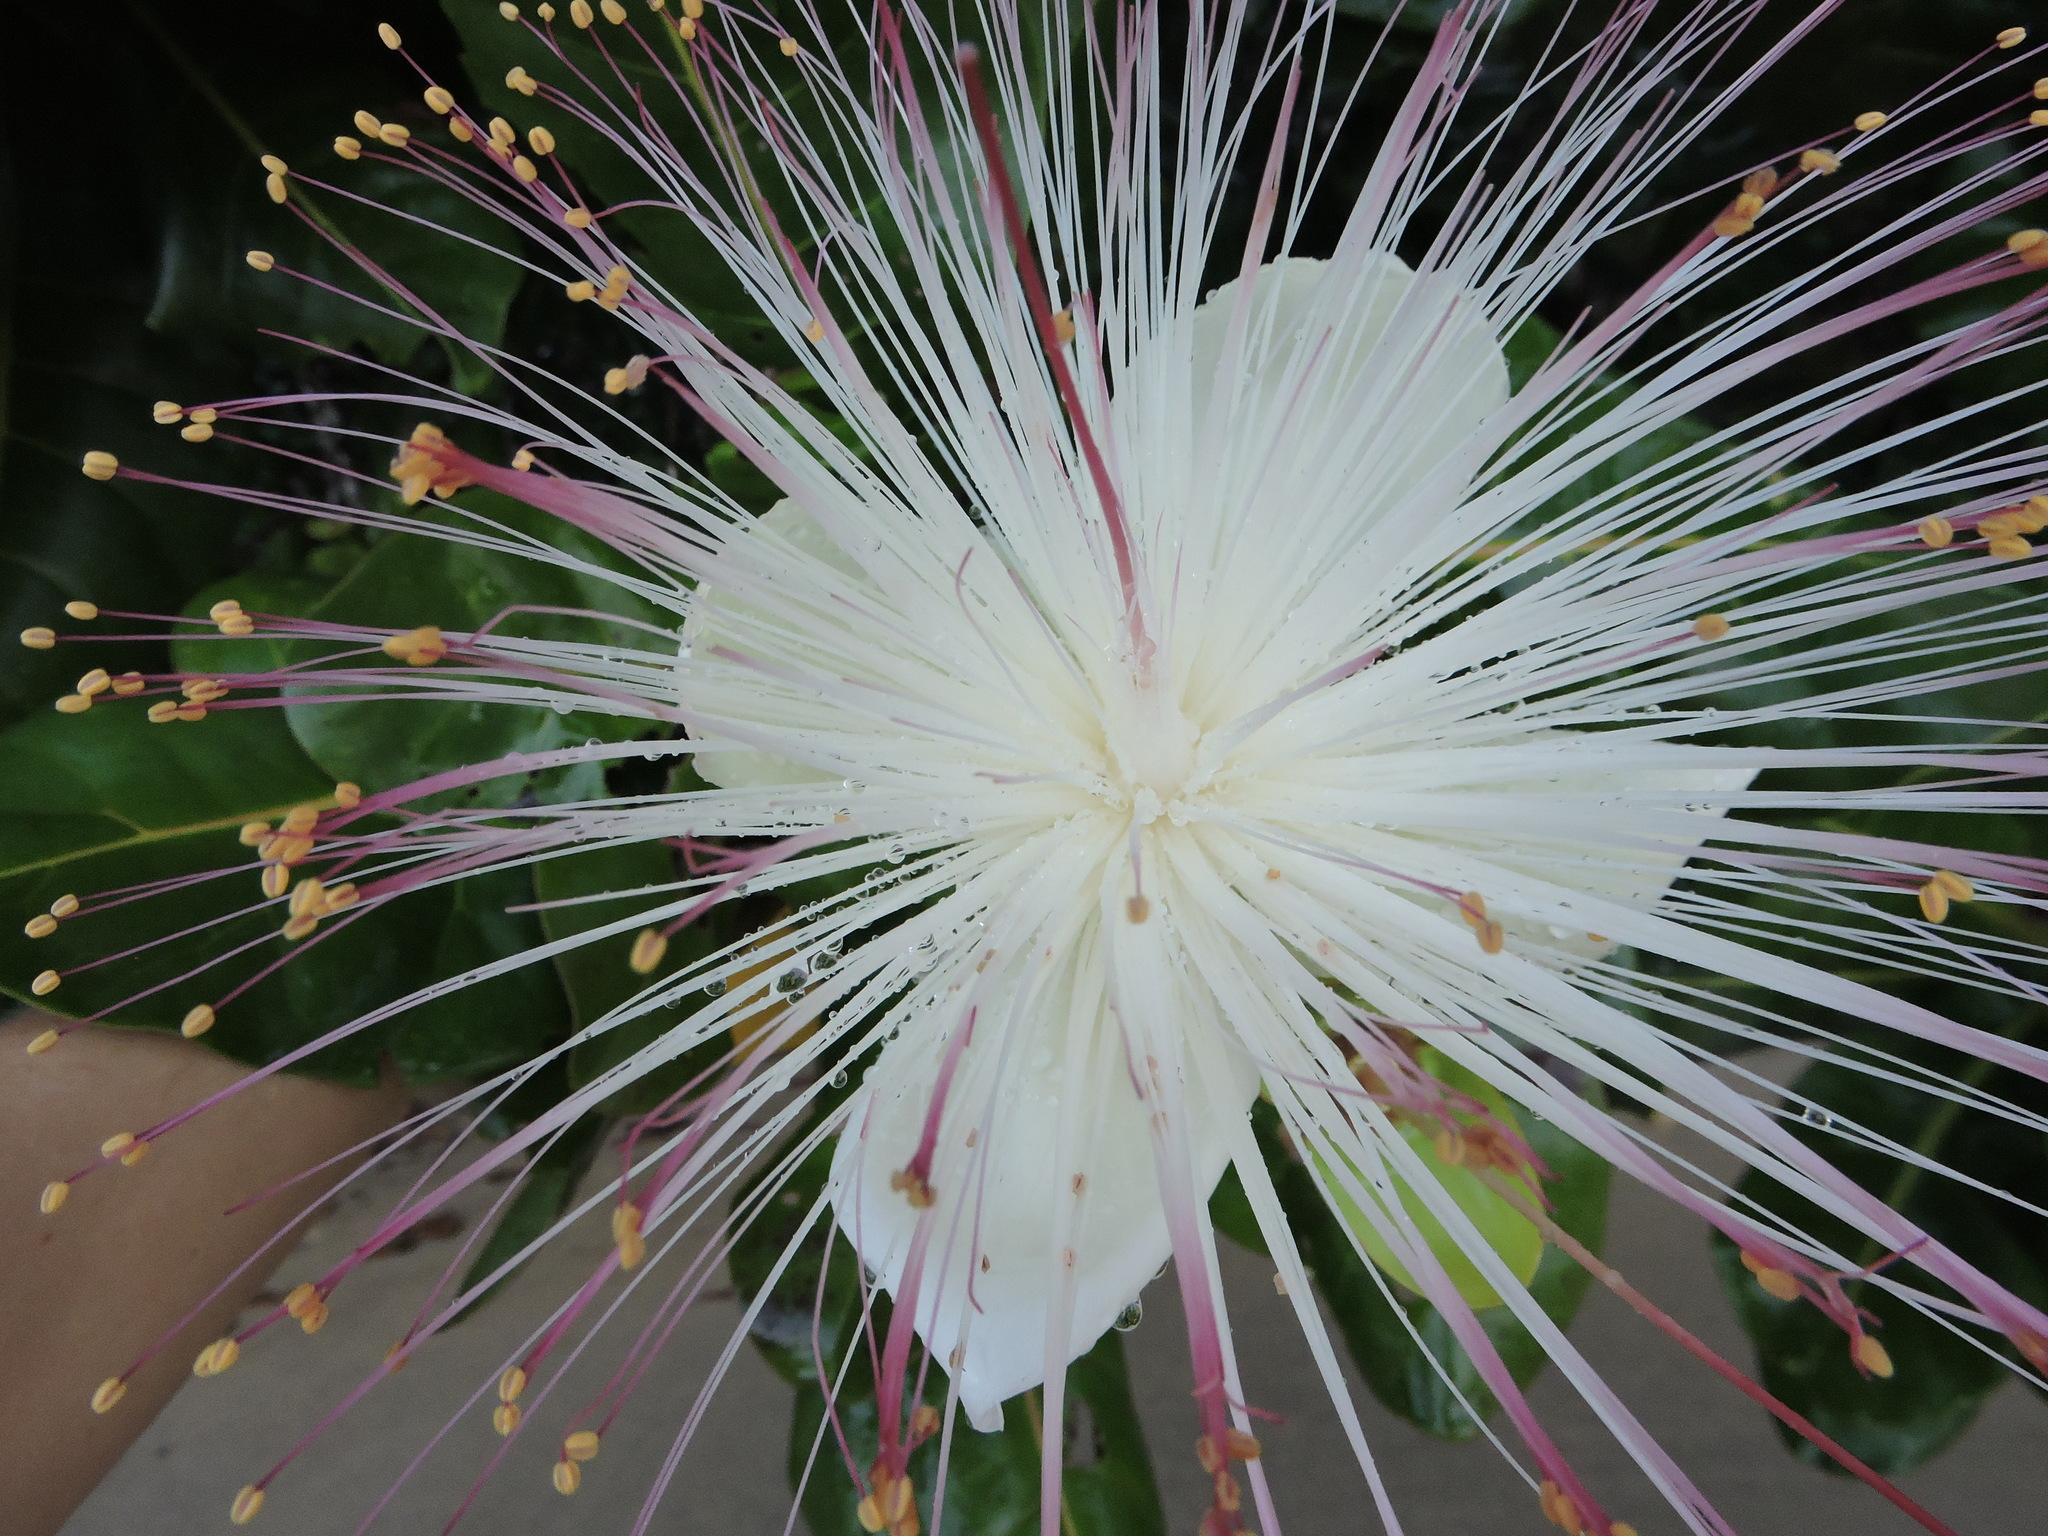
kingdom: Plantae
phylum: Tracheophyta
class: Magnoliopsida
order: Ericales
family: Lecythidaceae
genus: Barringtonia
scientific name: Barringtonia asiatica
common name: Mango-pine
